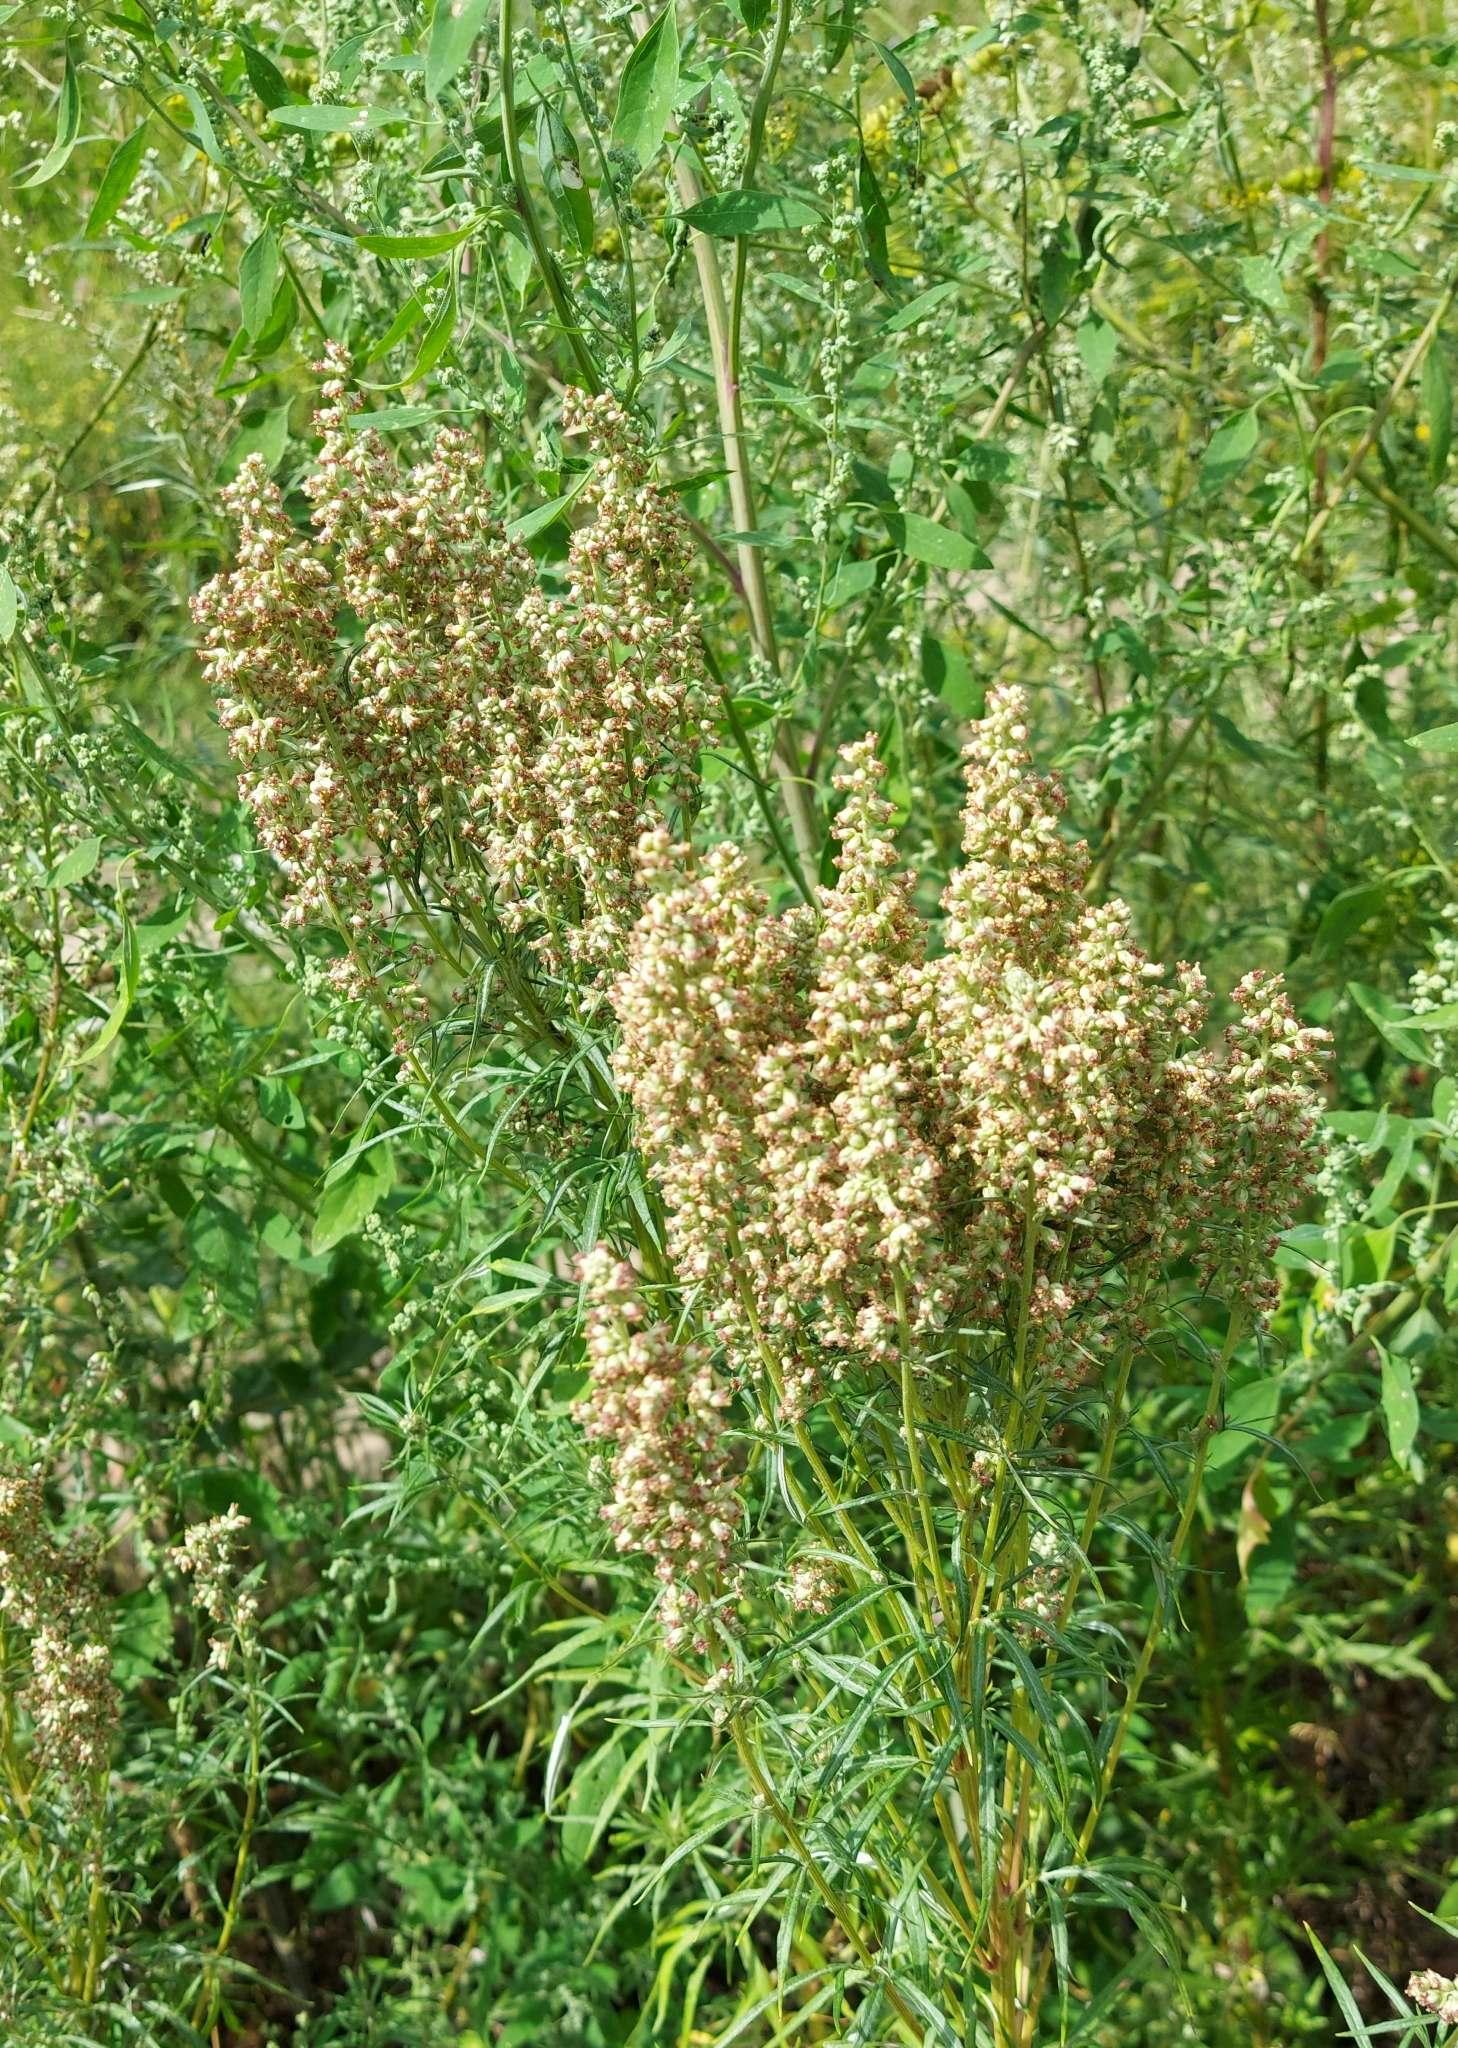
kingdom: Plantae
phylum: Tracheophyta
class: Magnoliopsida
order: Asterales
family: Asteraceae
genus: Artemisia
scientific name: Artemisia vulgaris
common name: Mugwort
